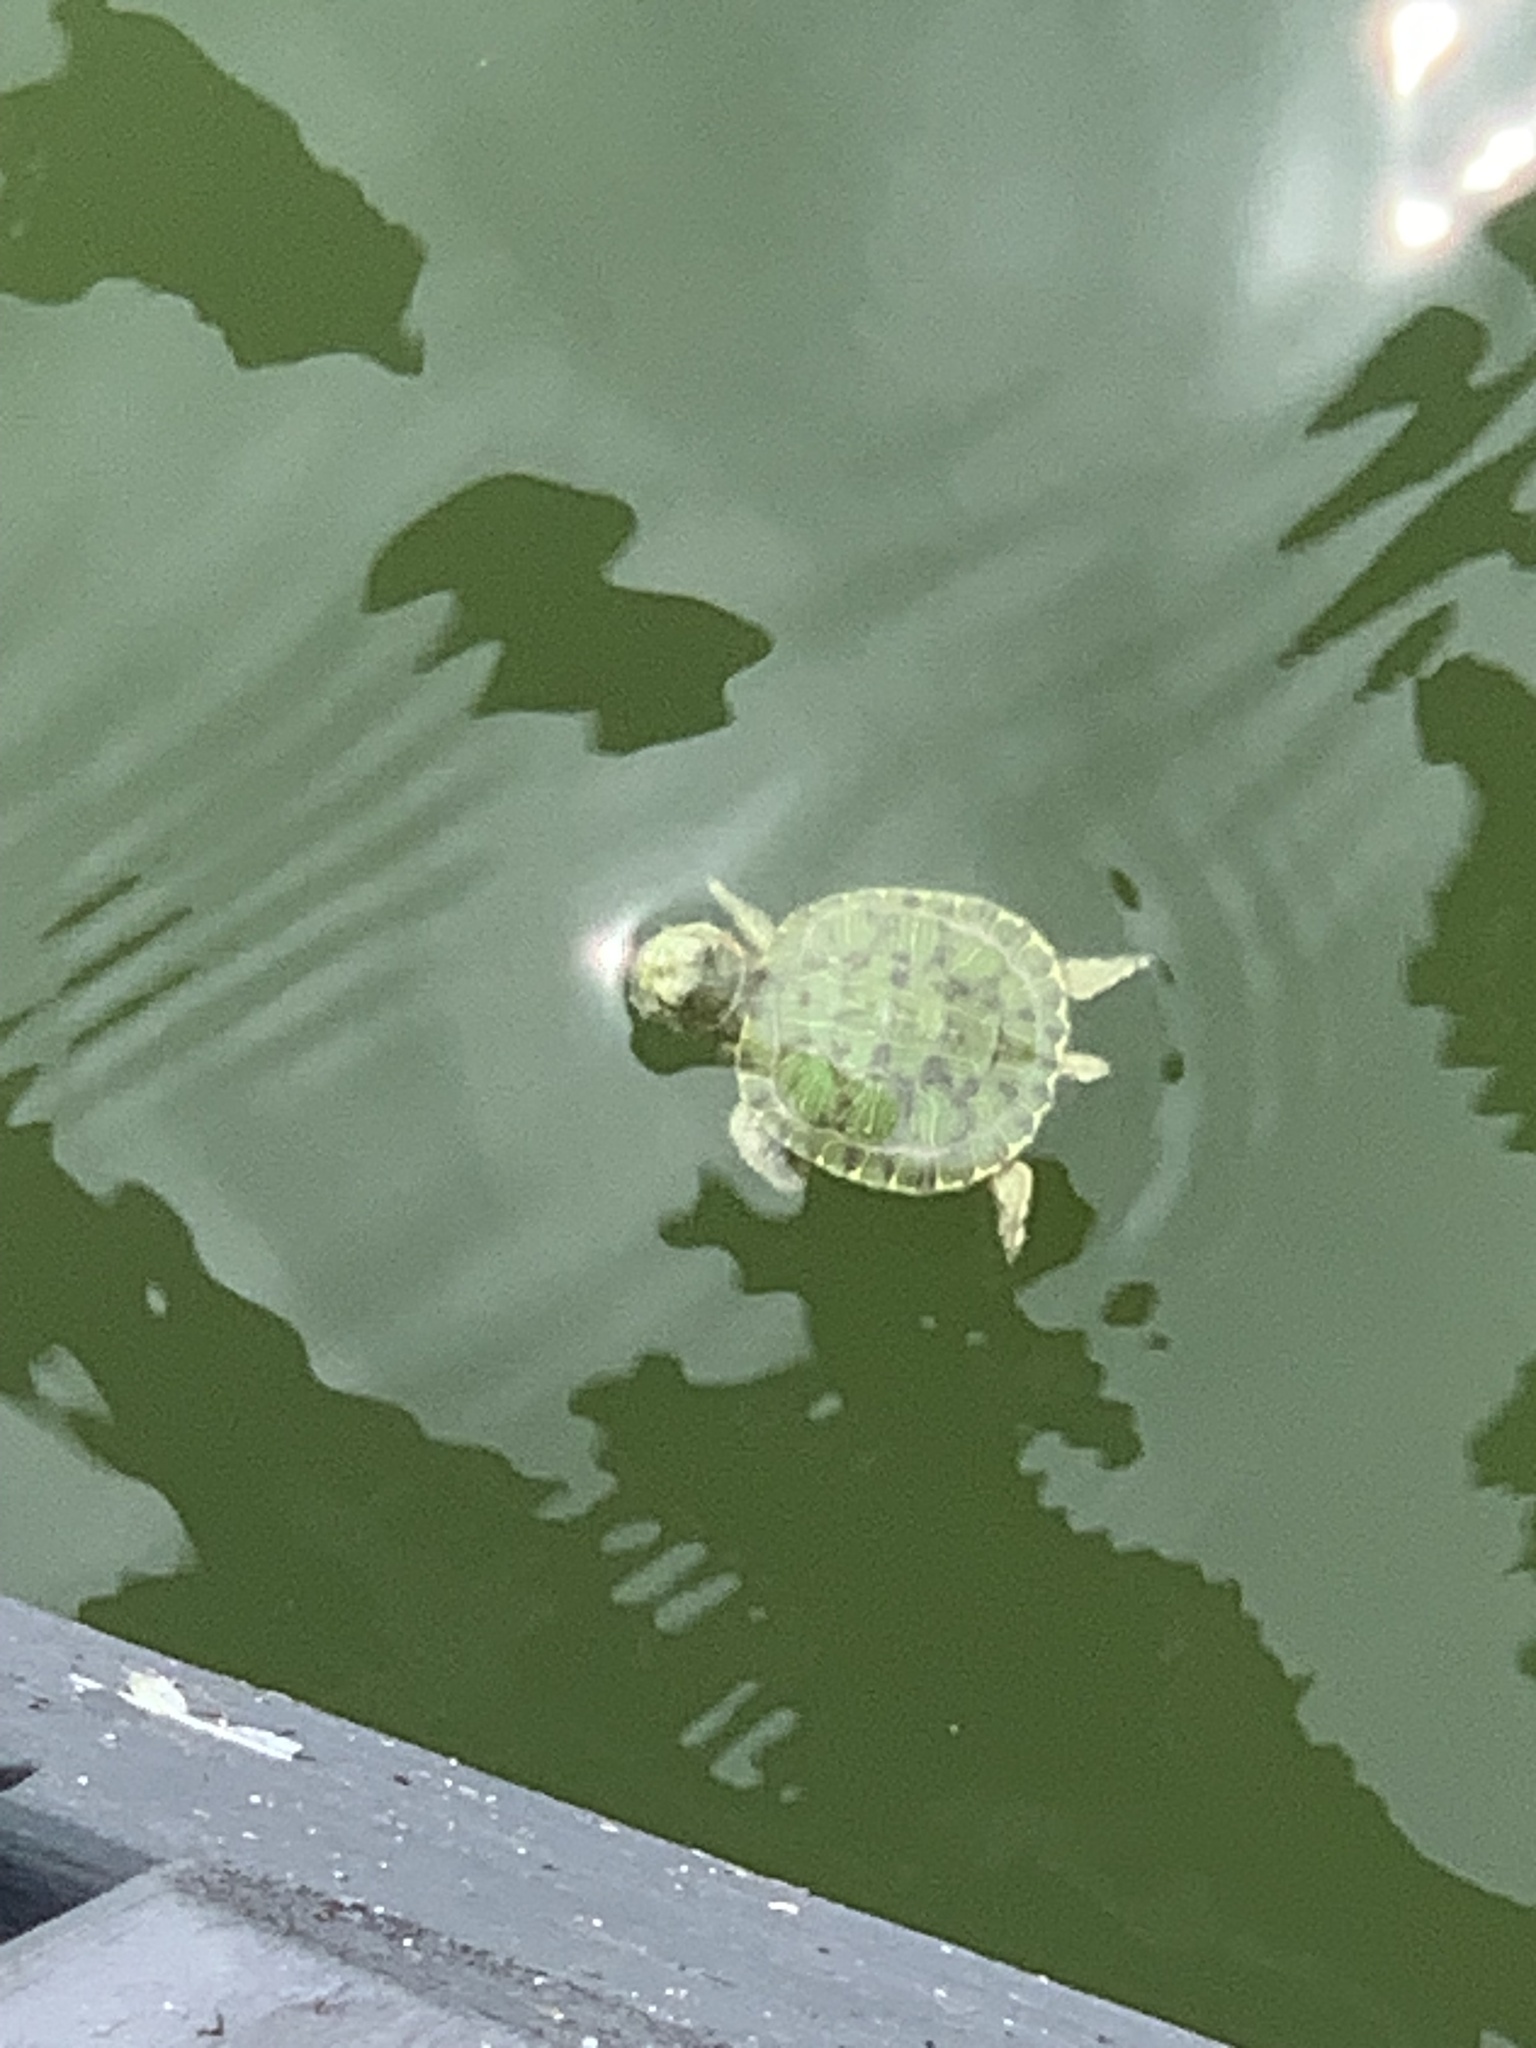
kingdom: Animalia
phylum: Chordata
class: Testudines
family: Emydidae
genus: Trachemys
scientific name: Trachemys scripta
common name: Slider
